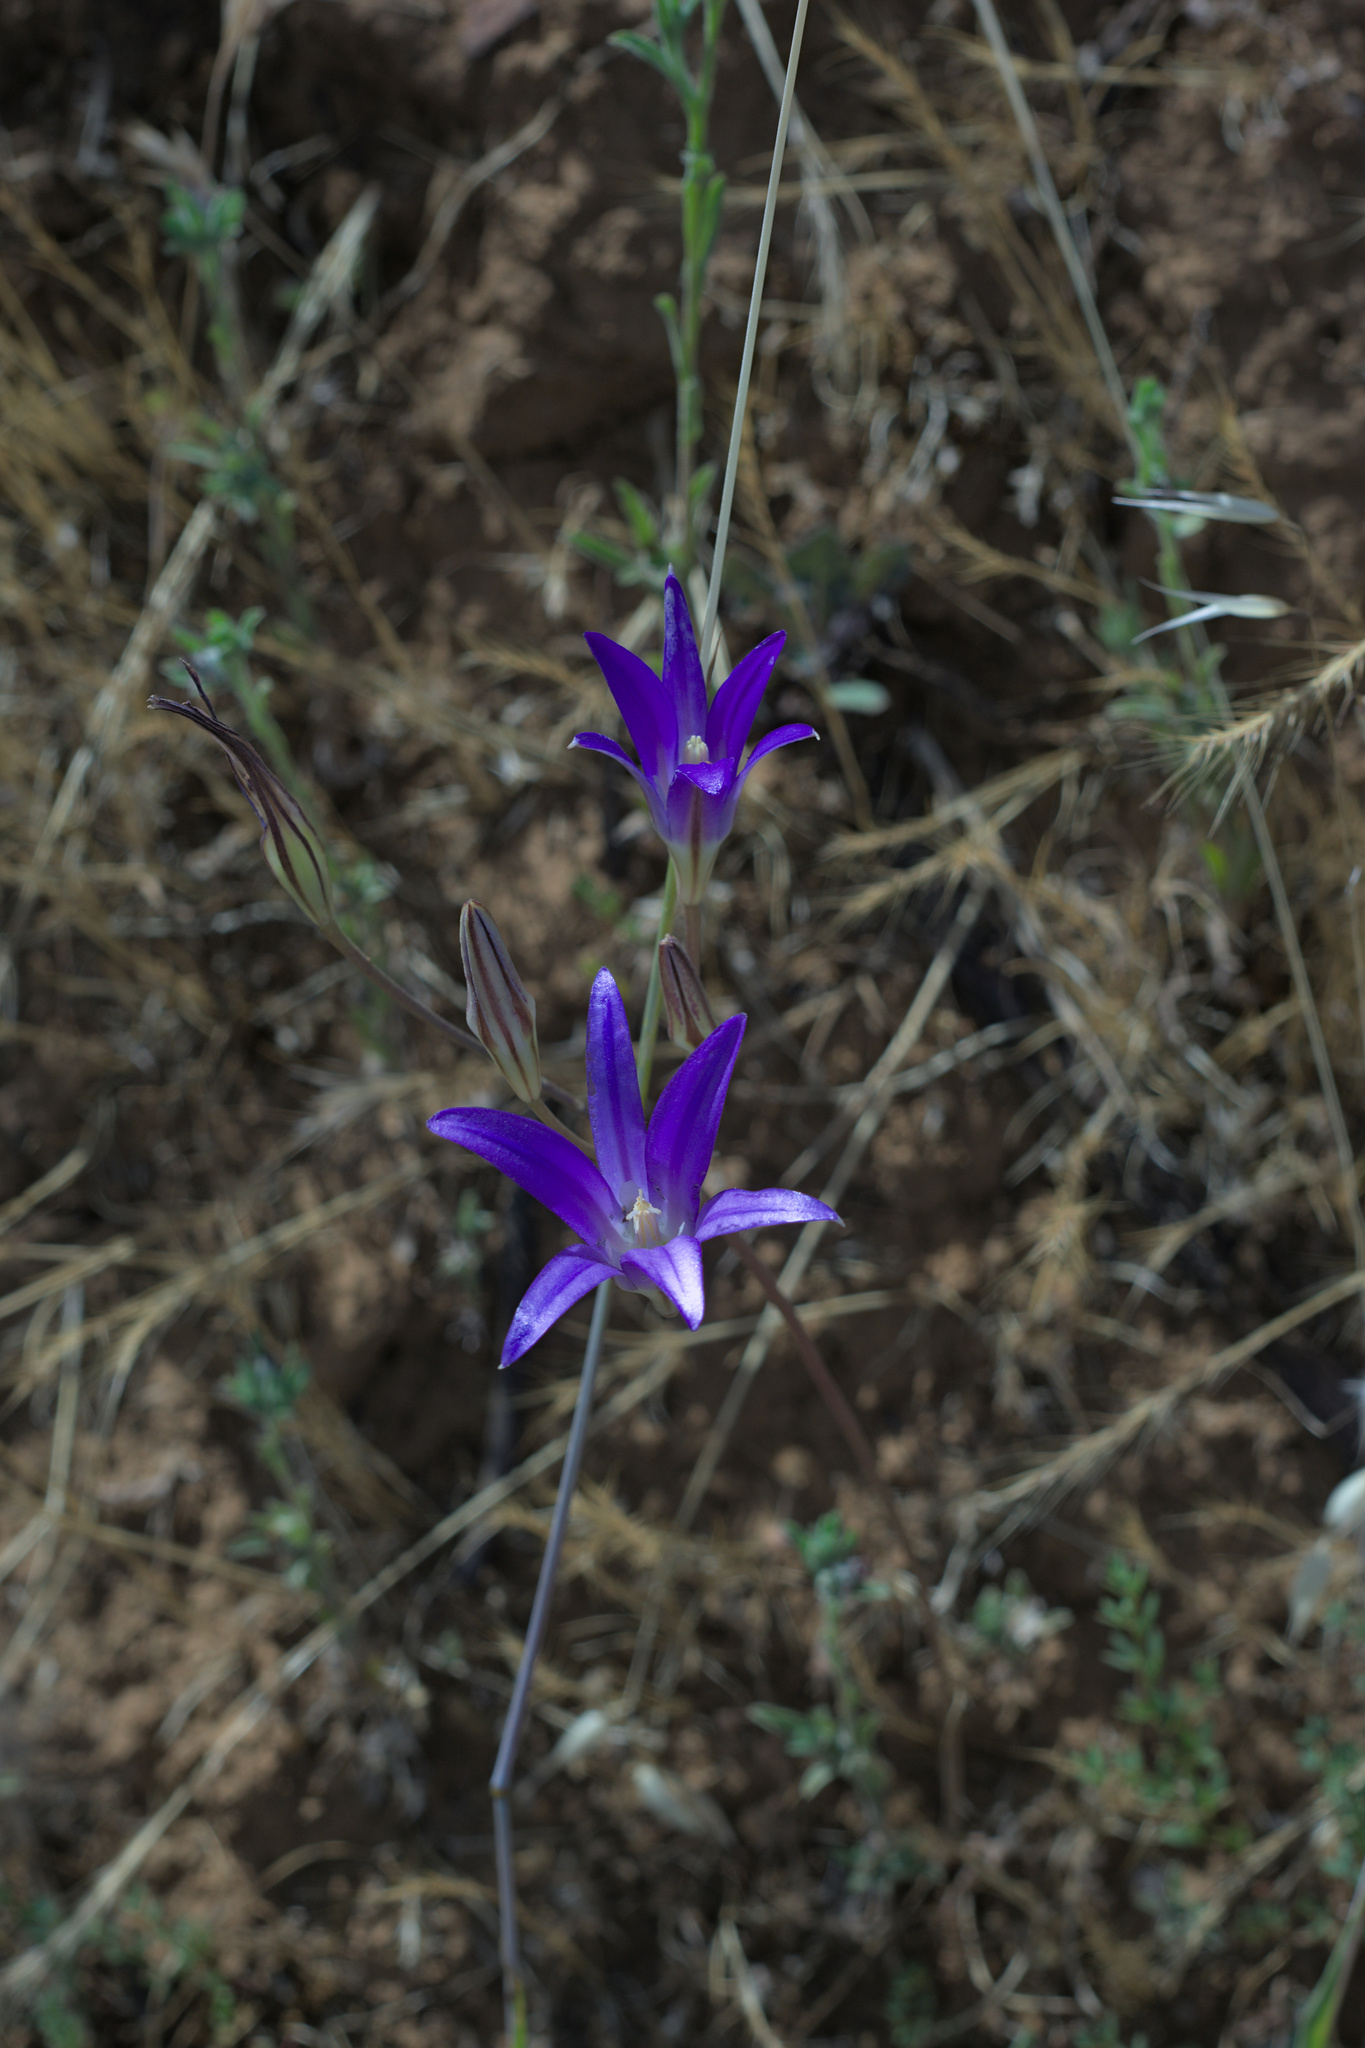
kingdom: Plantae
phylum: Tracheophyta
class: Liliopsida
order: Asparagales
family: Asparagaceae
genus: Brodiaea
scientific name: Brodiaea elegans
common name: Elegant cluster-lily
